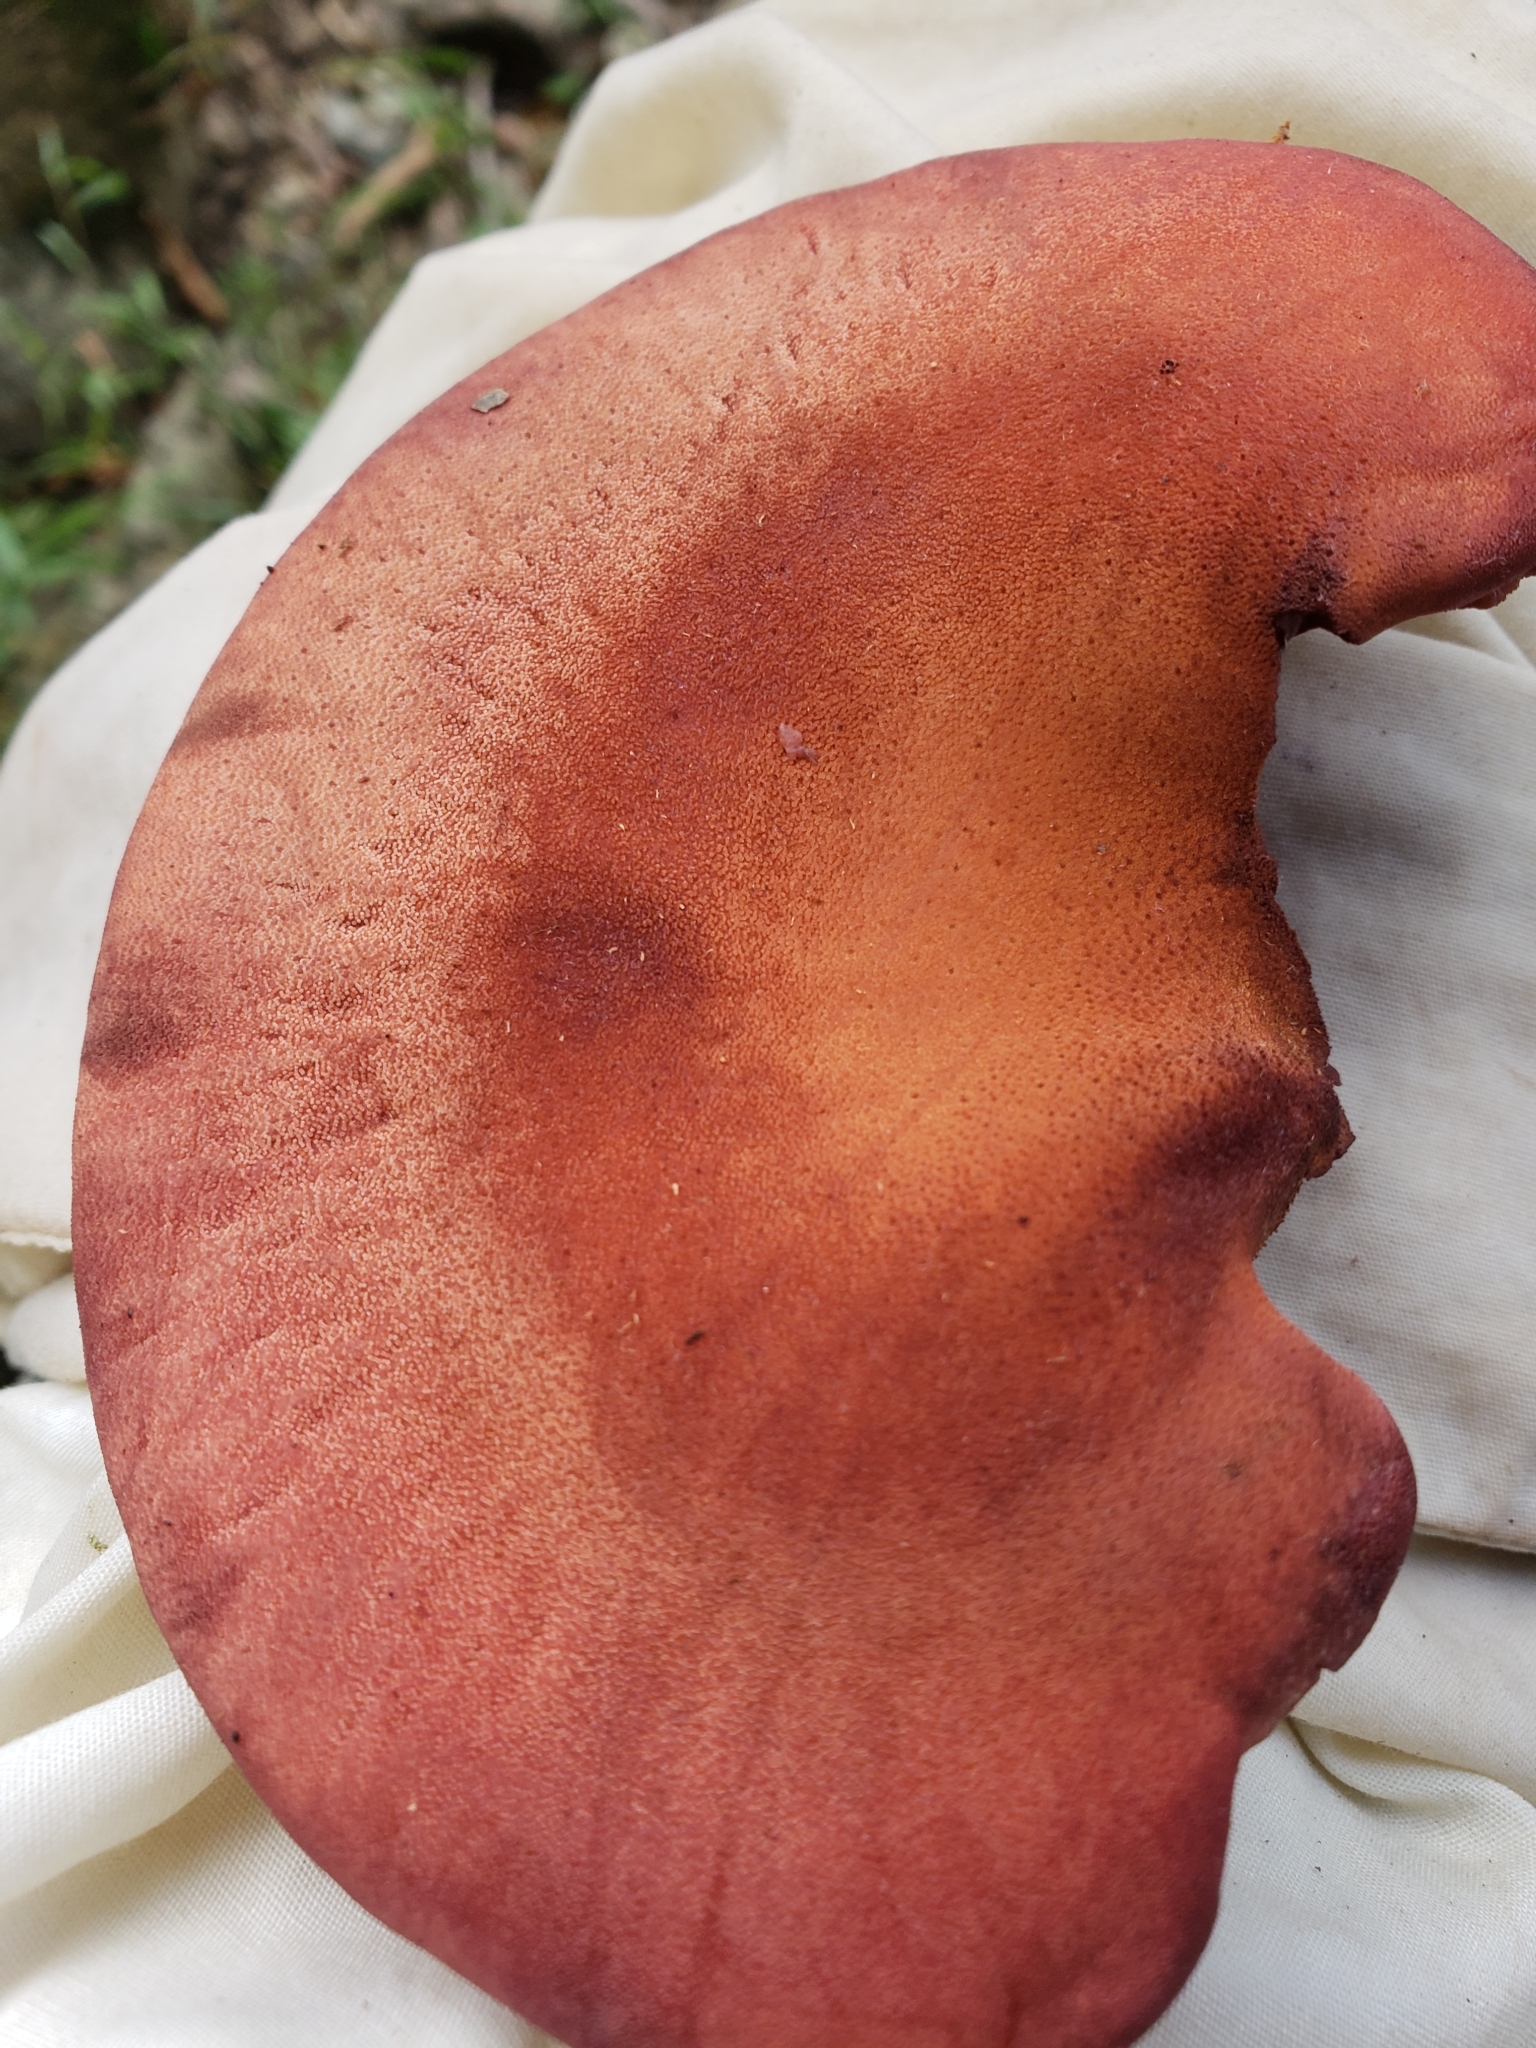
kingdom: Fungi
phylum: Basidiomycota
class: Agaricomycetes
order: Agaricales
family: Fistulinaceae
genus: Fistulina
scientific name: Fistulina hepatica
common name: Beef-steak fungus
